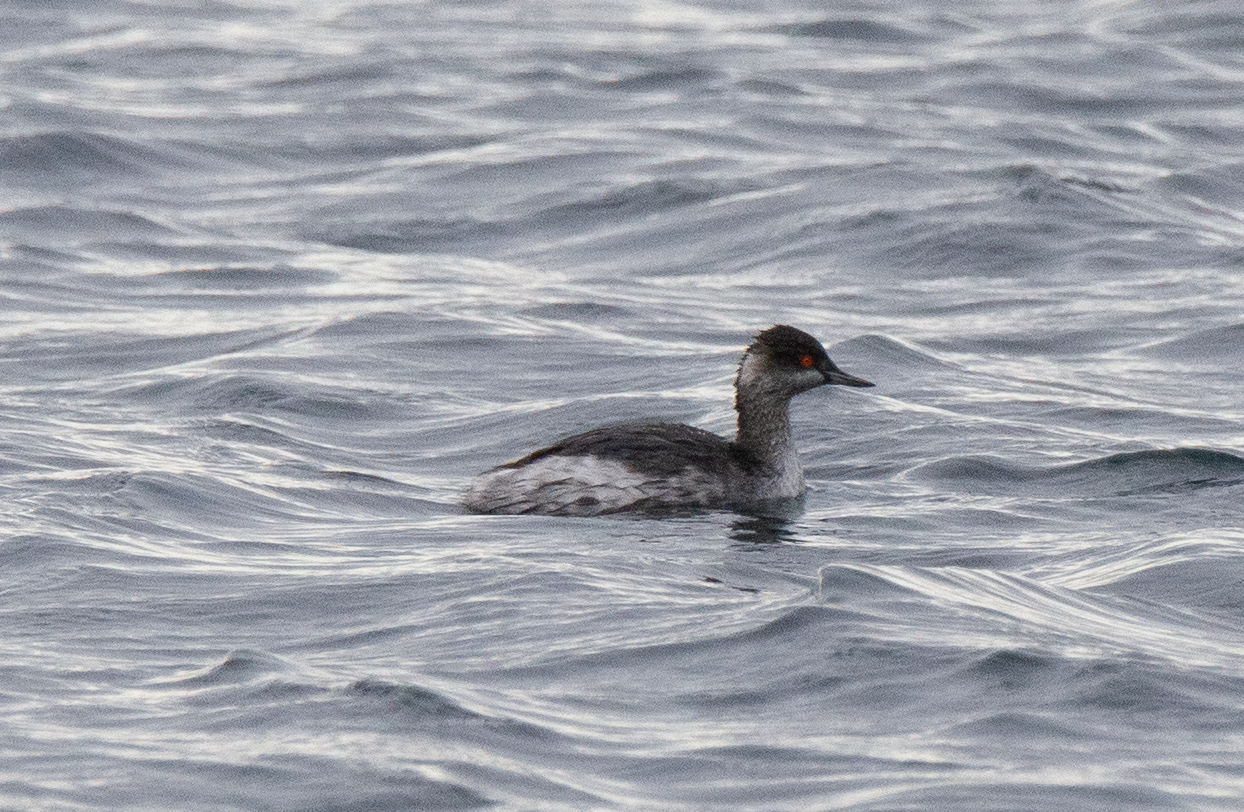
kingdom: Animalia
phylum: Chordata
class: Aves
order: Podicipediformes
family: Podicipedidae
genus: Podiceps
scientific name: Podiceps nigricollis
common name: Black-necked grebe
